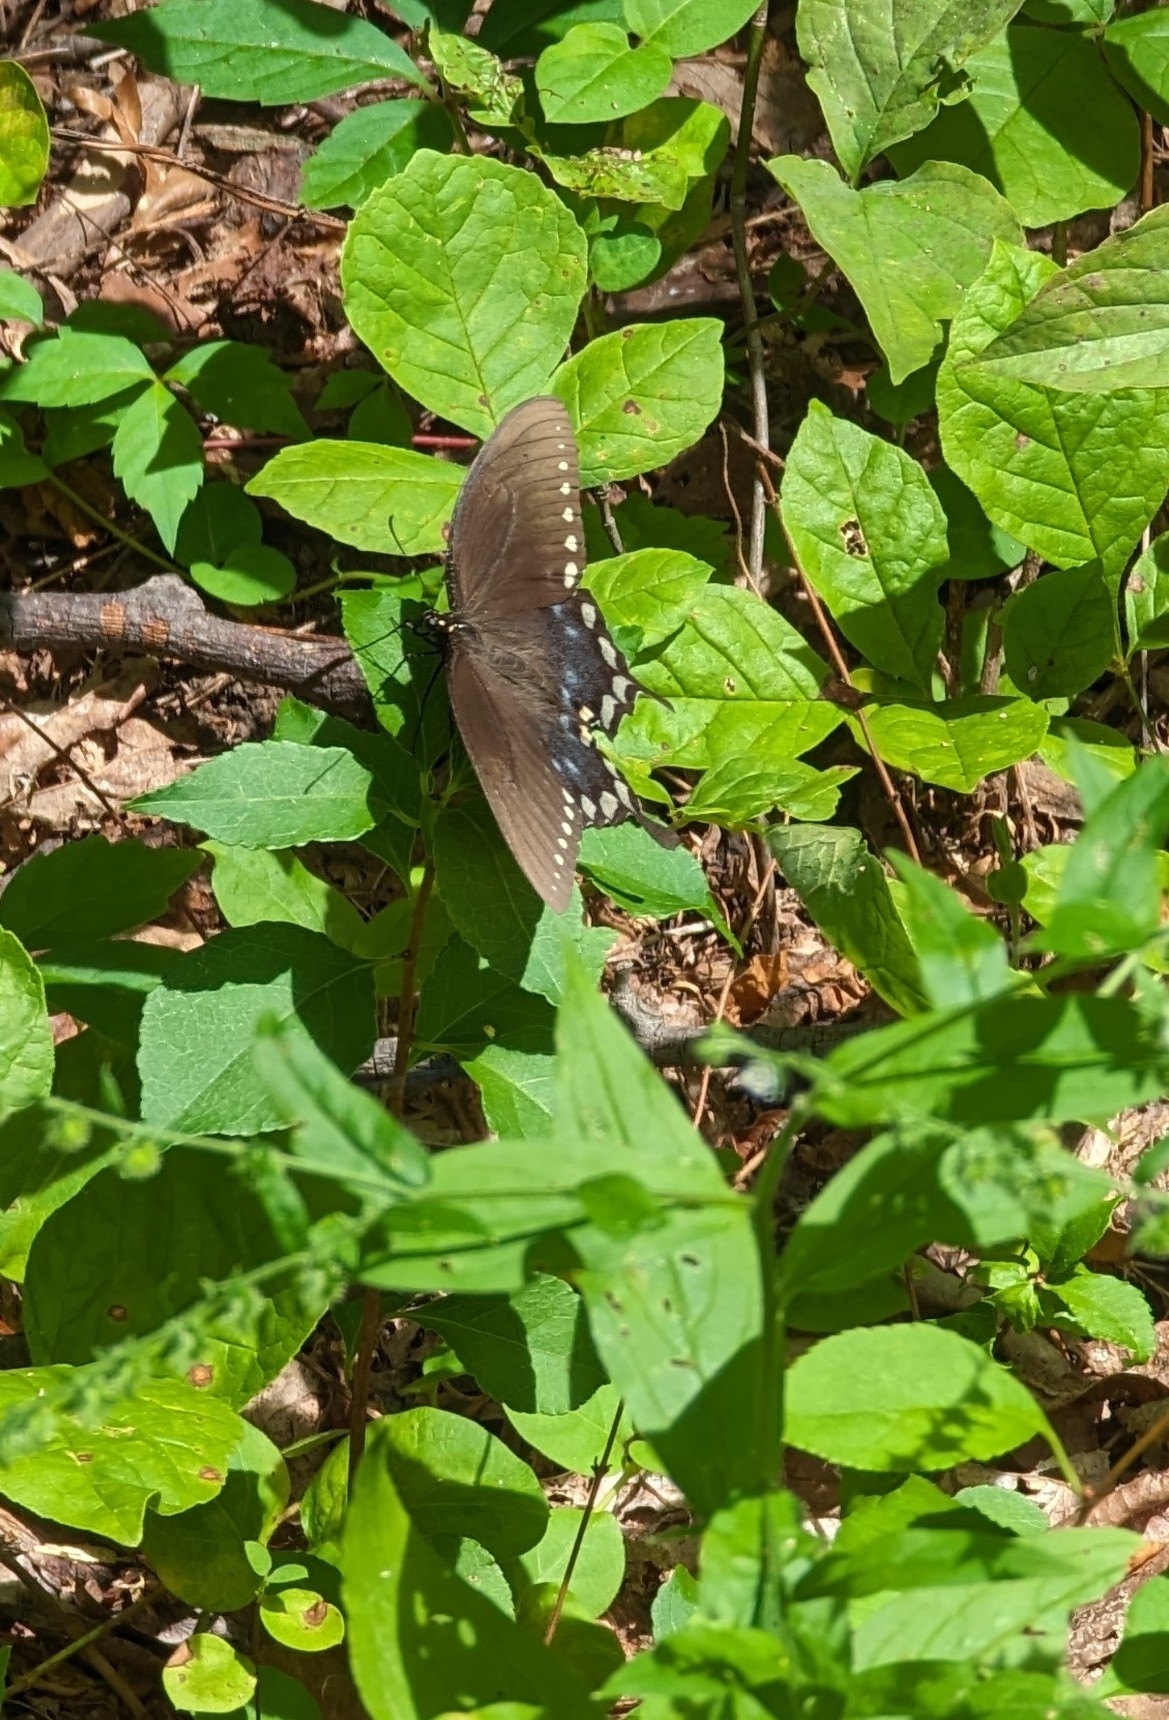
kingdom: Animalia
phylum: Arthropoda
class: Insecta
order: Lepidoptera
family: Papilionidae
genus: Papilio
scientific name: Papilio troilus
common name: Spicebush swallowtail
